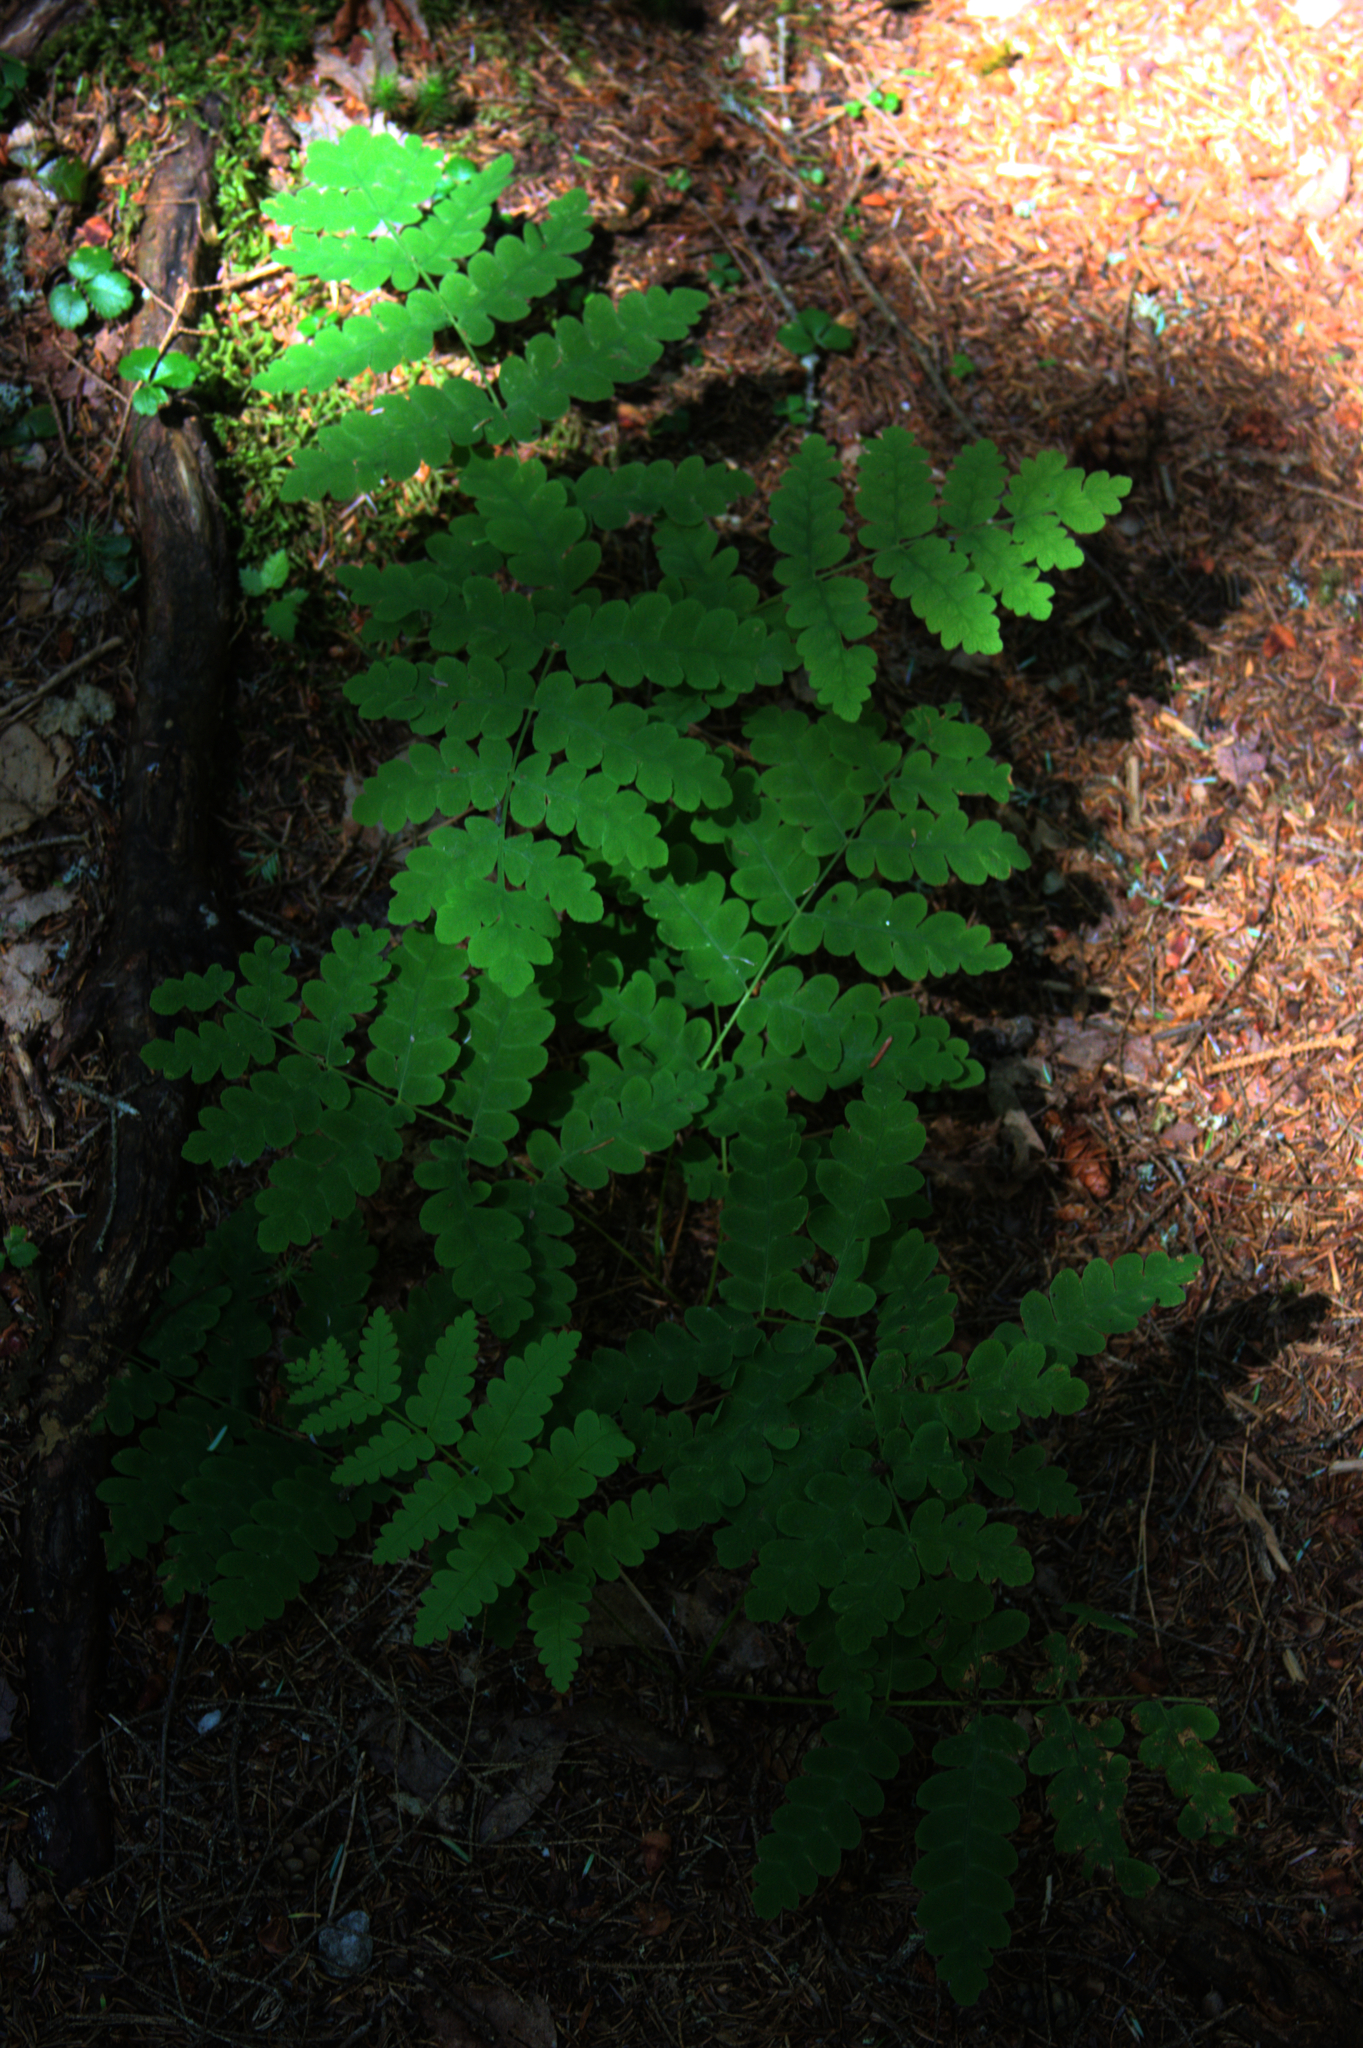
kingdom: Plantae
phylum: Tracheophyta
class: Polypodiopsida
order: Osmundales
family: Osmundaceae
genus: Claytosmunda
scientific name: Claytosmunda claytoniana
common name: Clayton's fern
